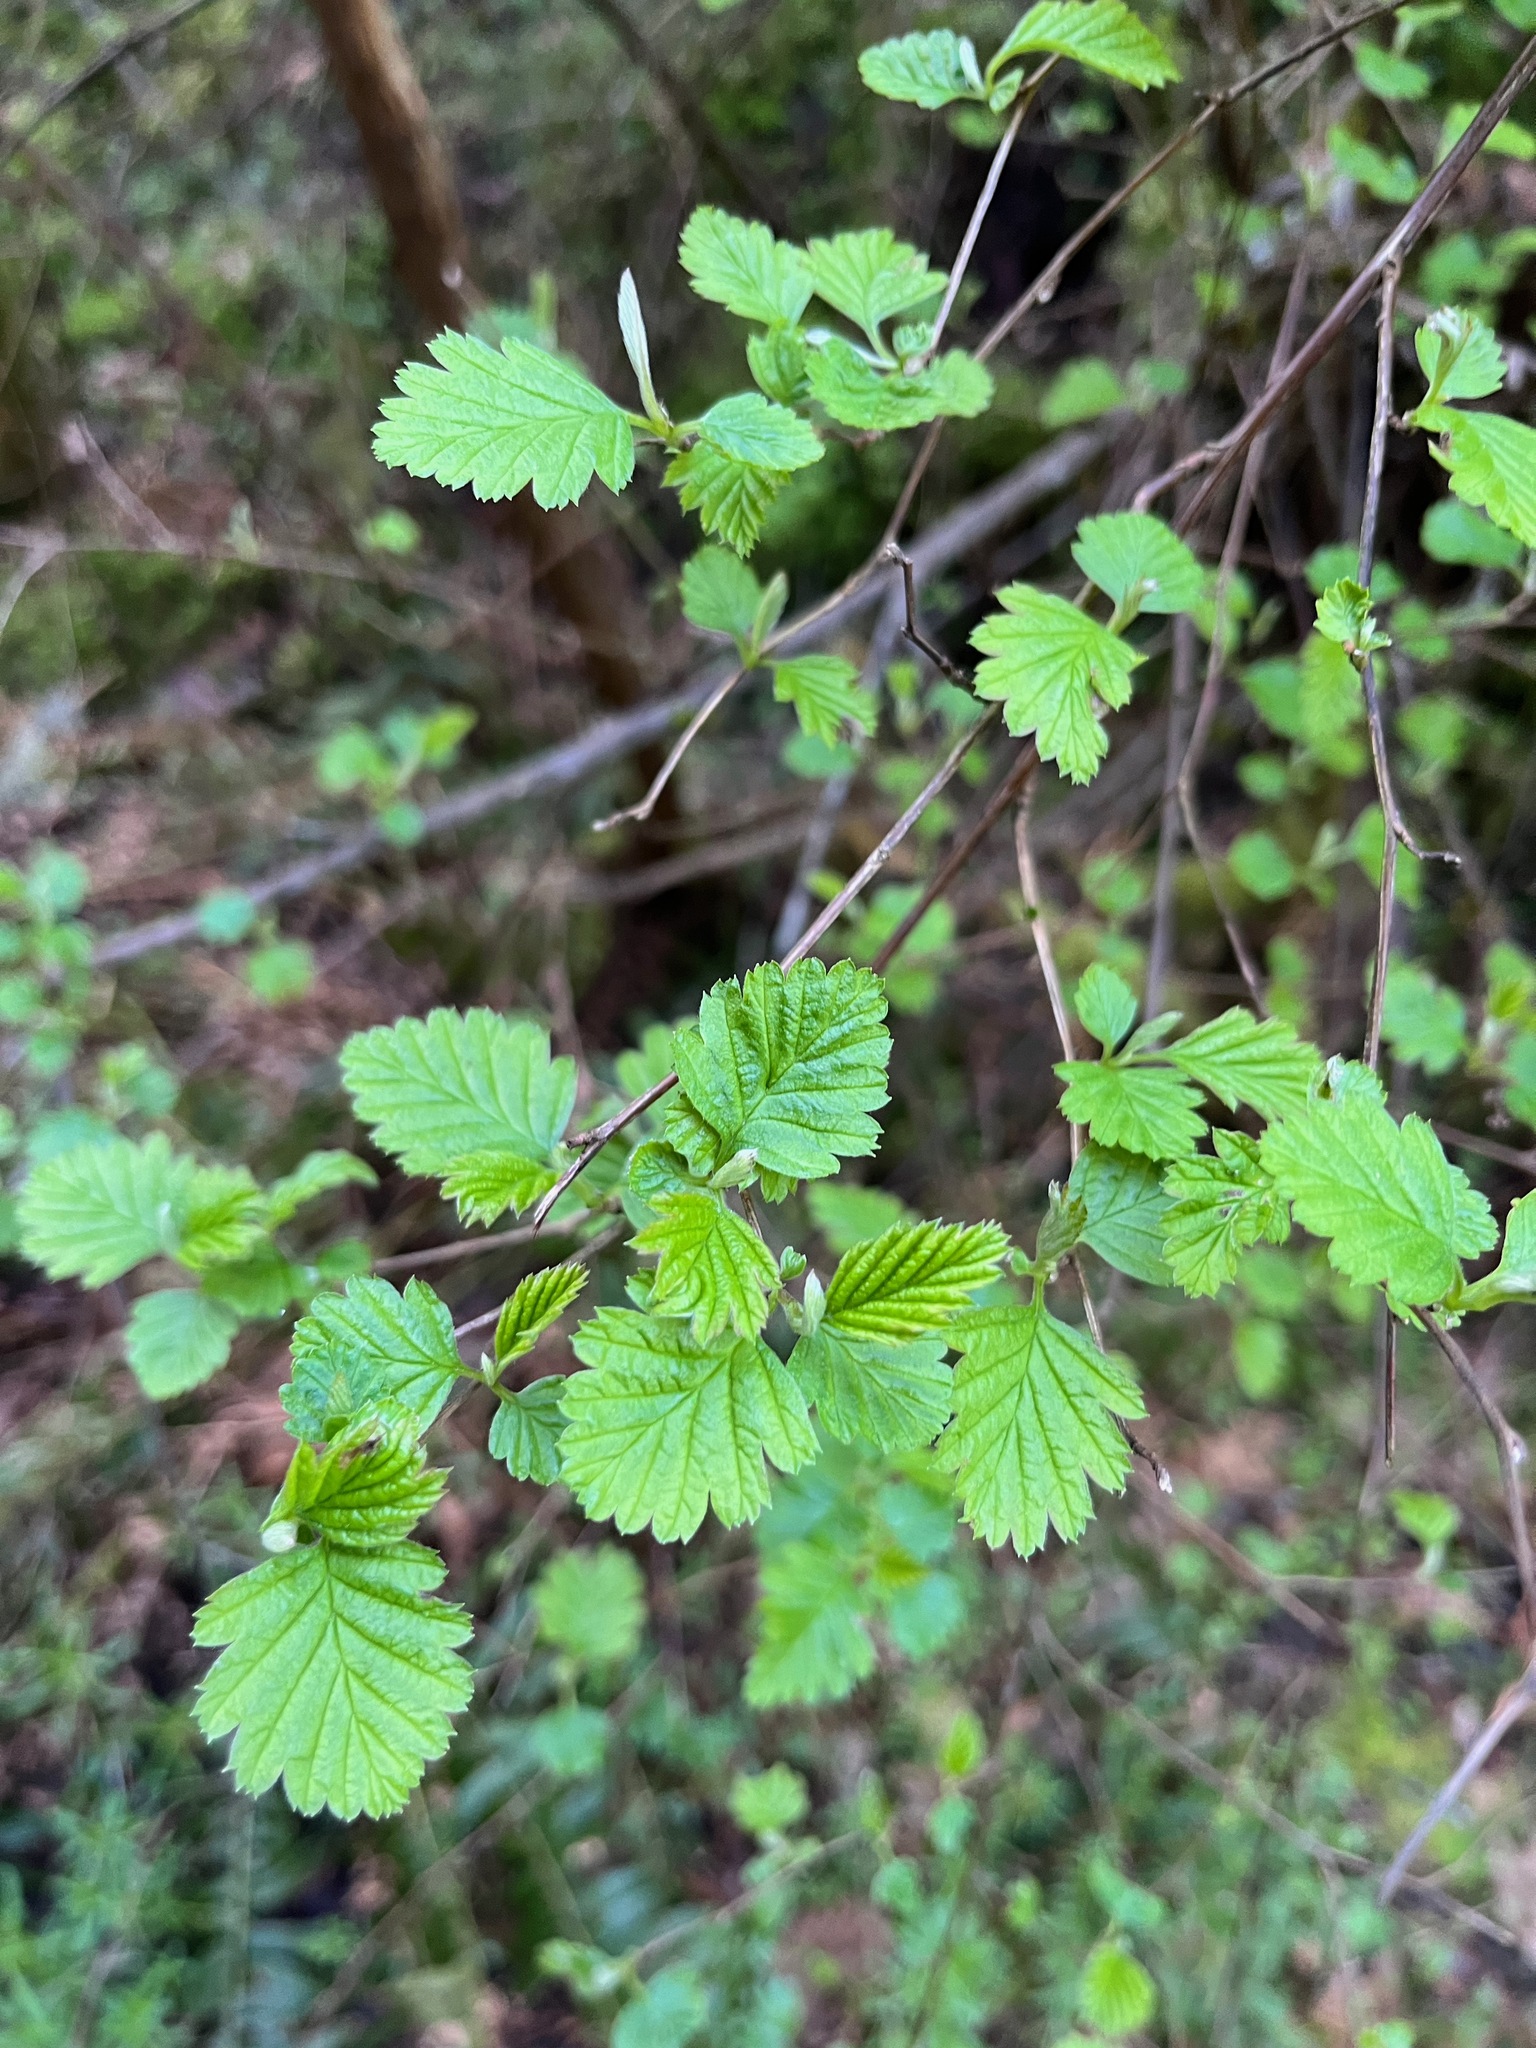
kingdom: Plantae
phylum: Tracheophyta
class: Magnoliopsida
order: Rosales
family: Rosaceae
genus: Holodiscus
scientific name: Holodiscus discolor
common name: Oceanspray
